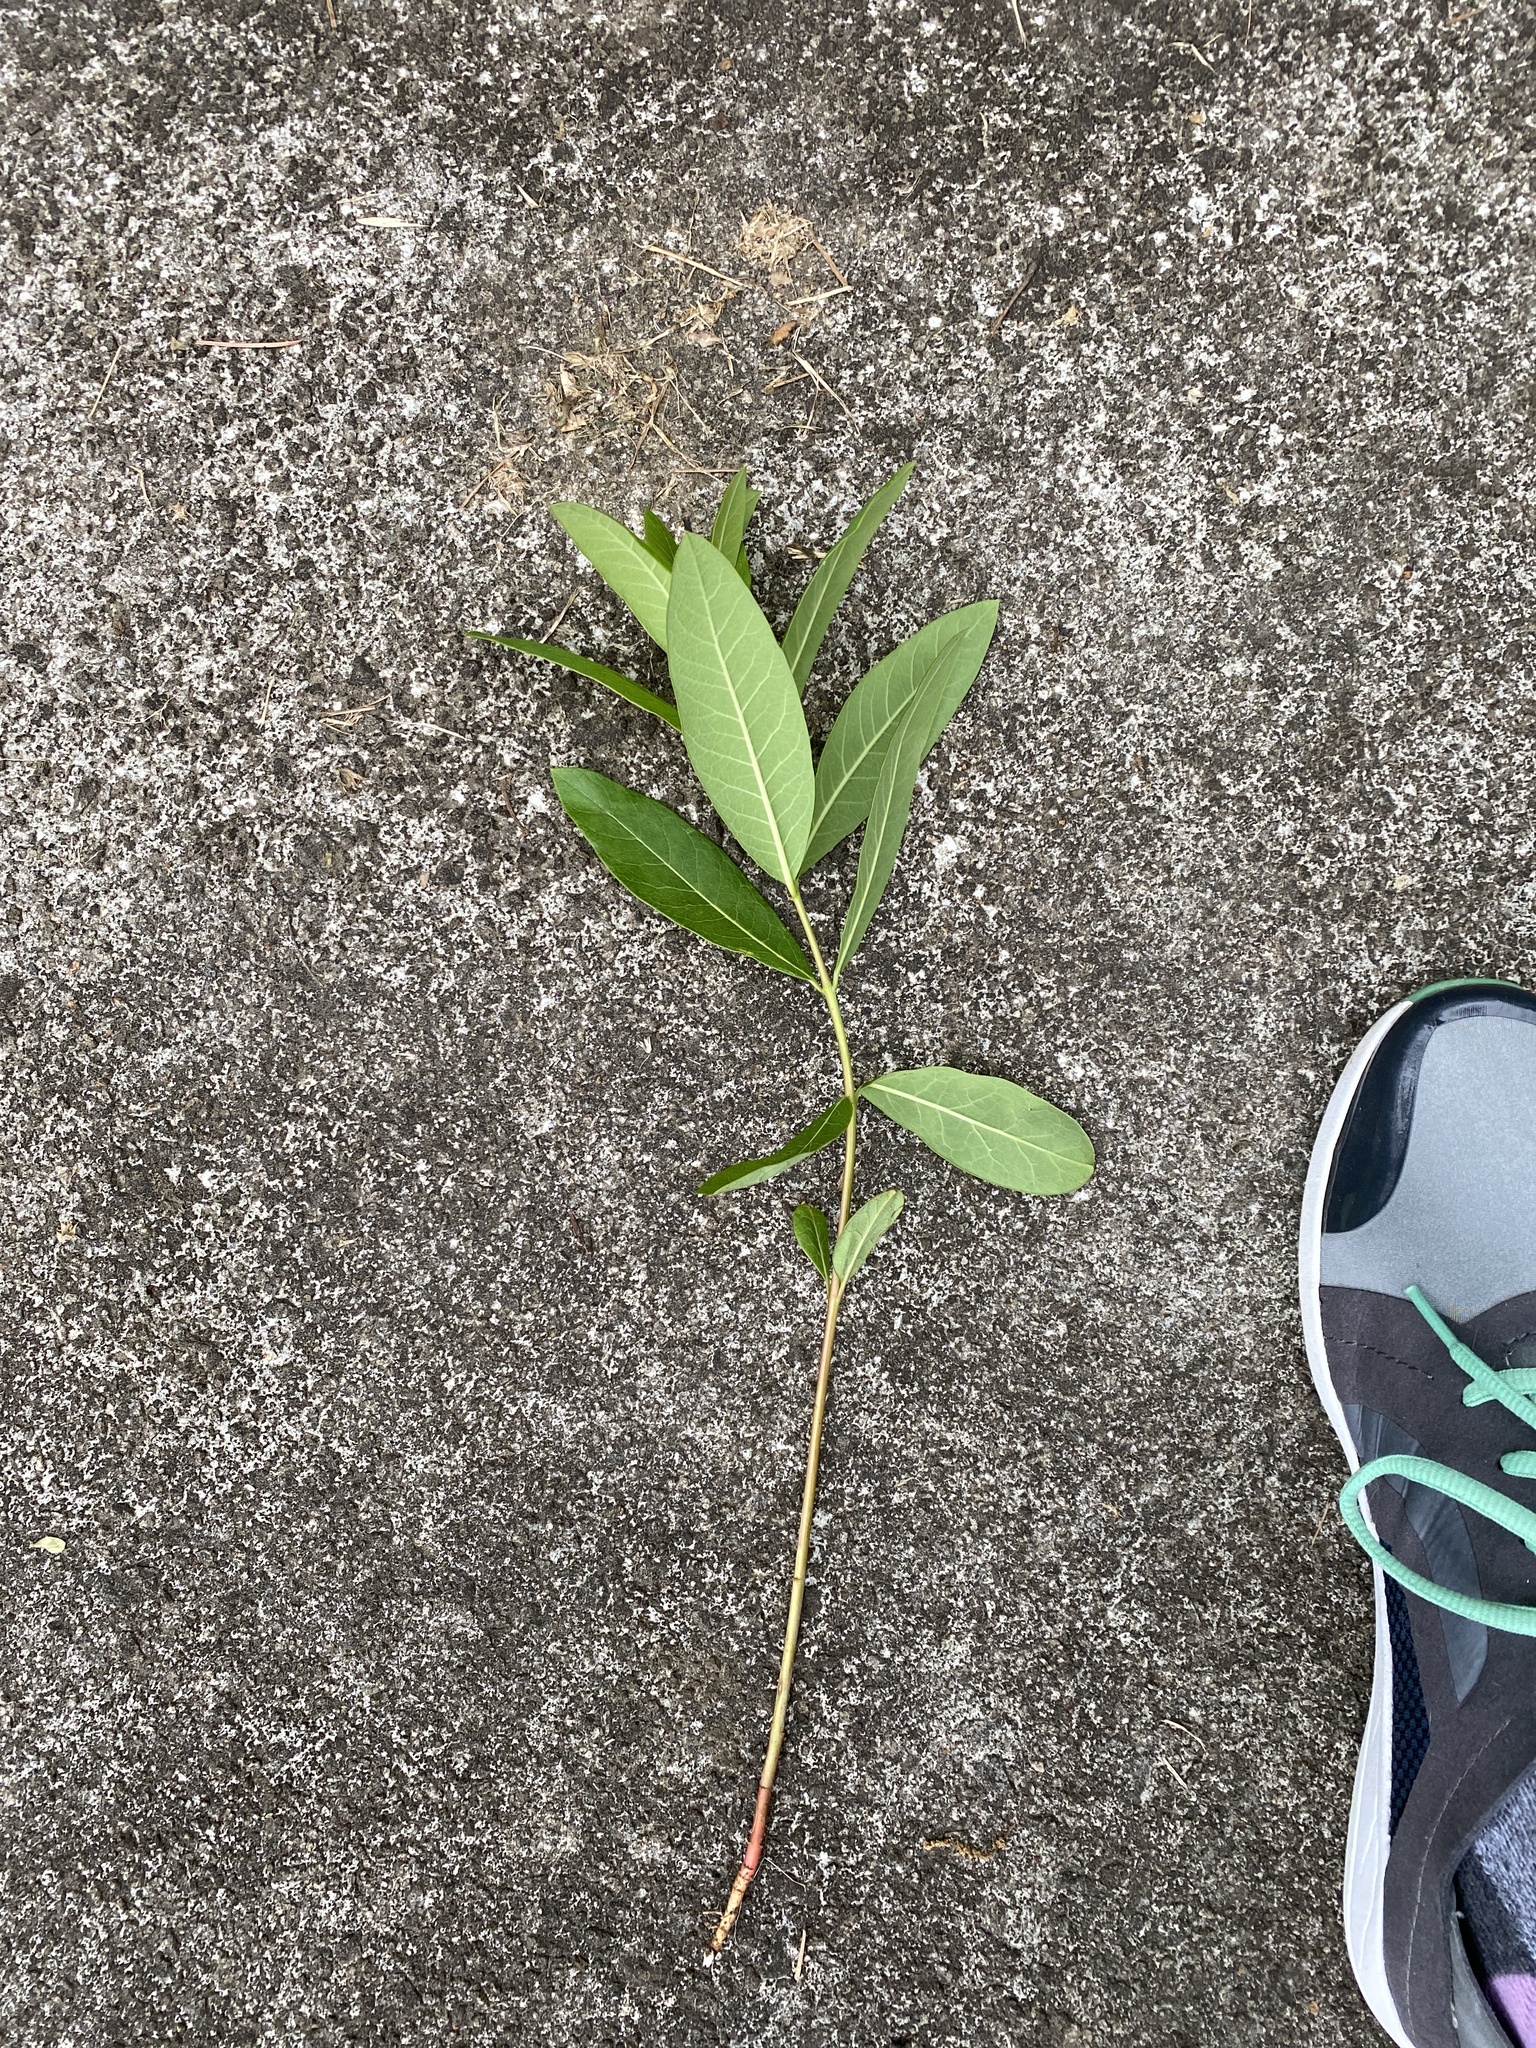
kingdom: Plantae
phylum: Tracheophyta
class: Magnoliopsida
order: Gentianales
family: Apocynaceae
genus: Apocynum
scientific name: Apocynum cannabinum
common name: Hemp dogbane
